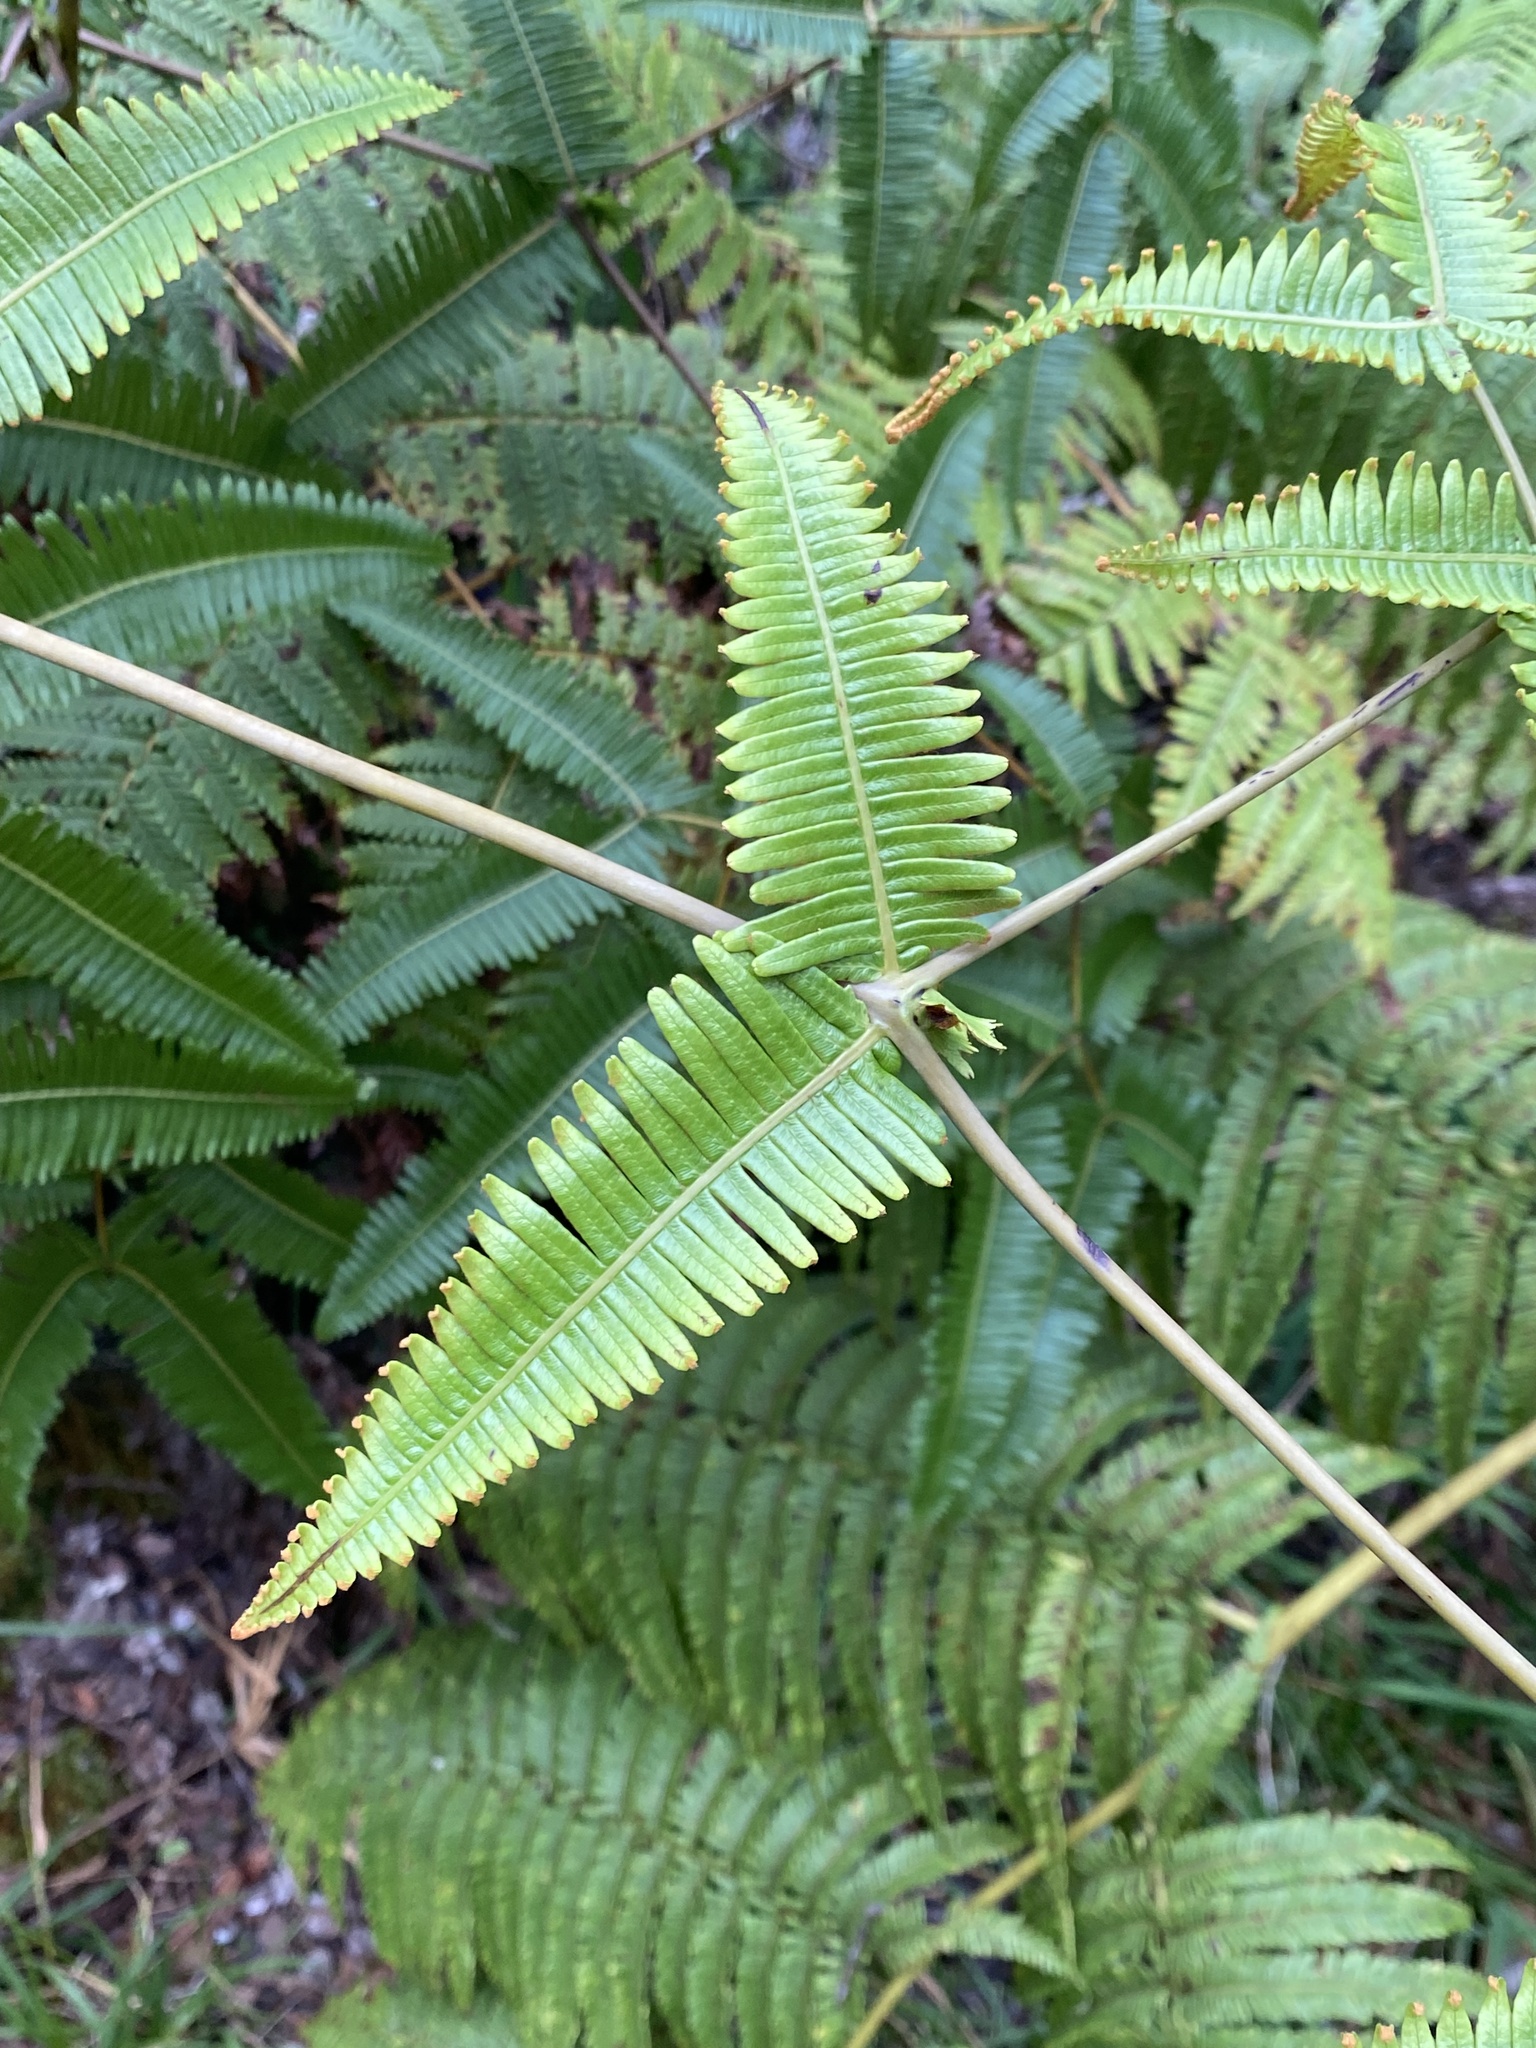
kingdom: Plantae
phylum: Tracheophyta
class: Polypodiopsida
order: Gleicheniales
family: Gleicheniaceae
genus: Dicranopteris
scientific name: Dicranopteris linearis
